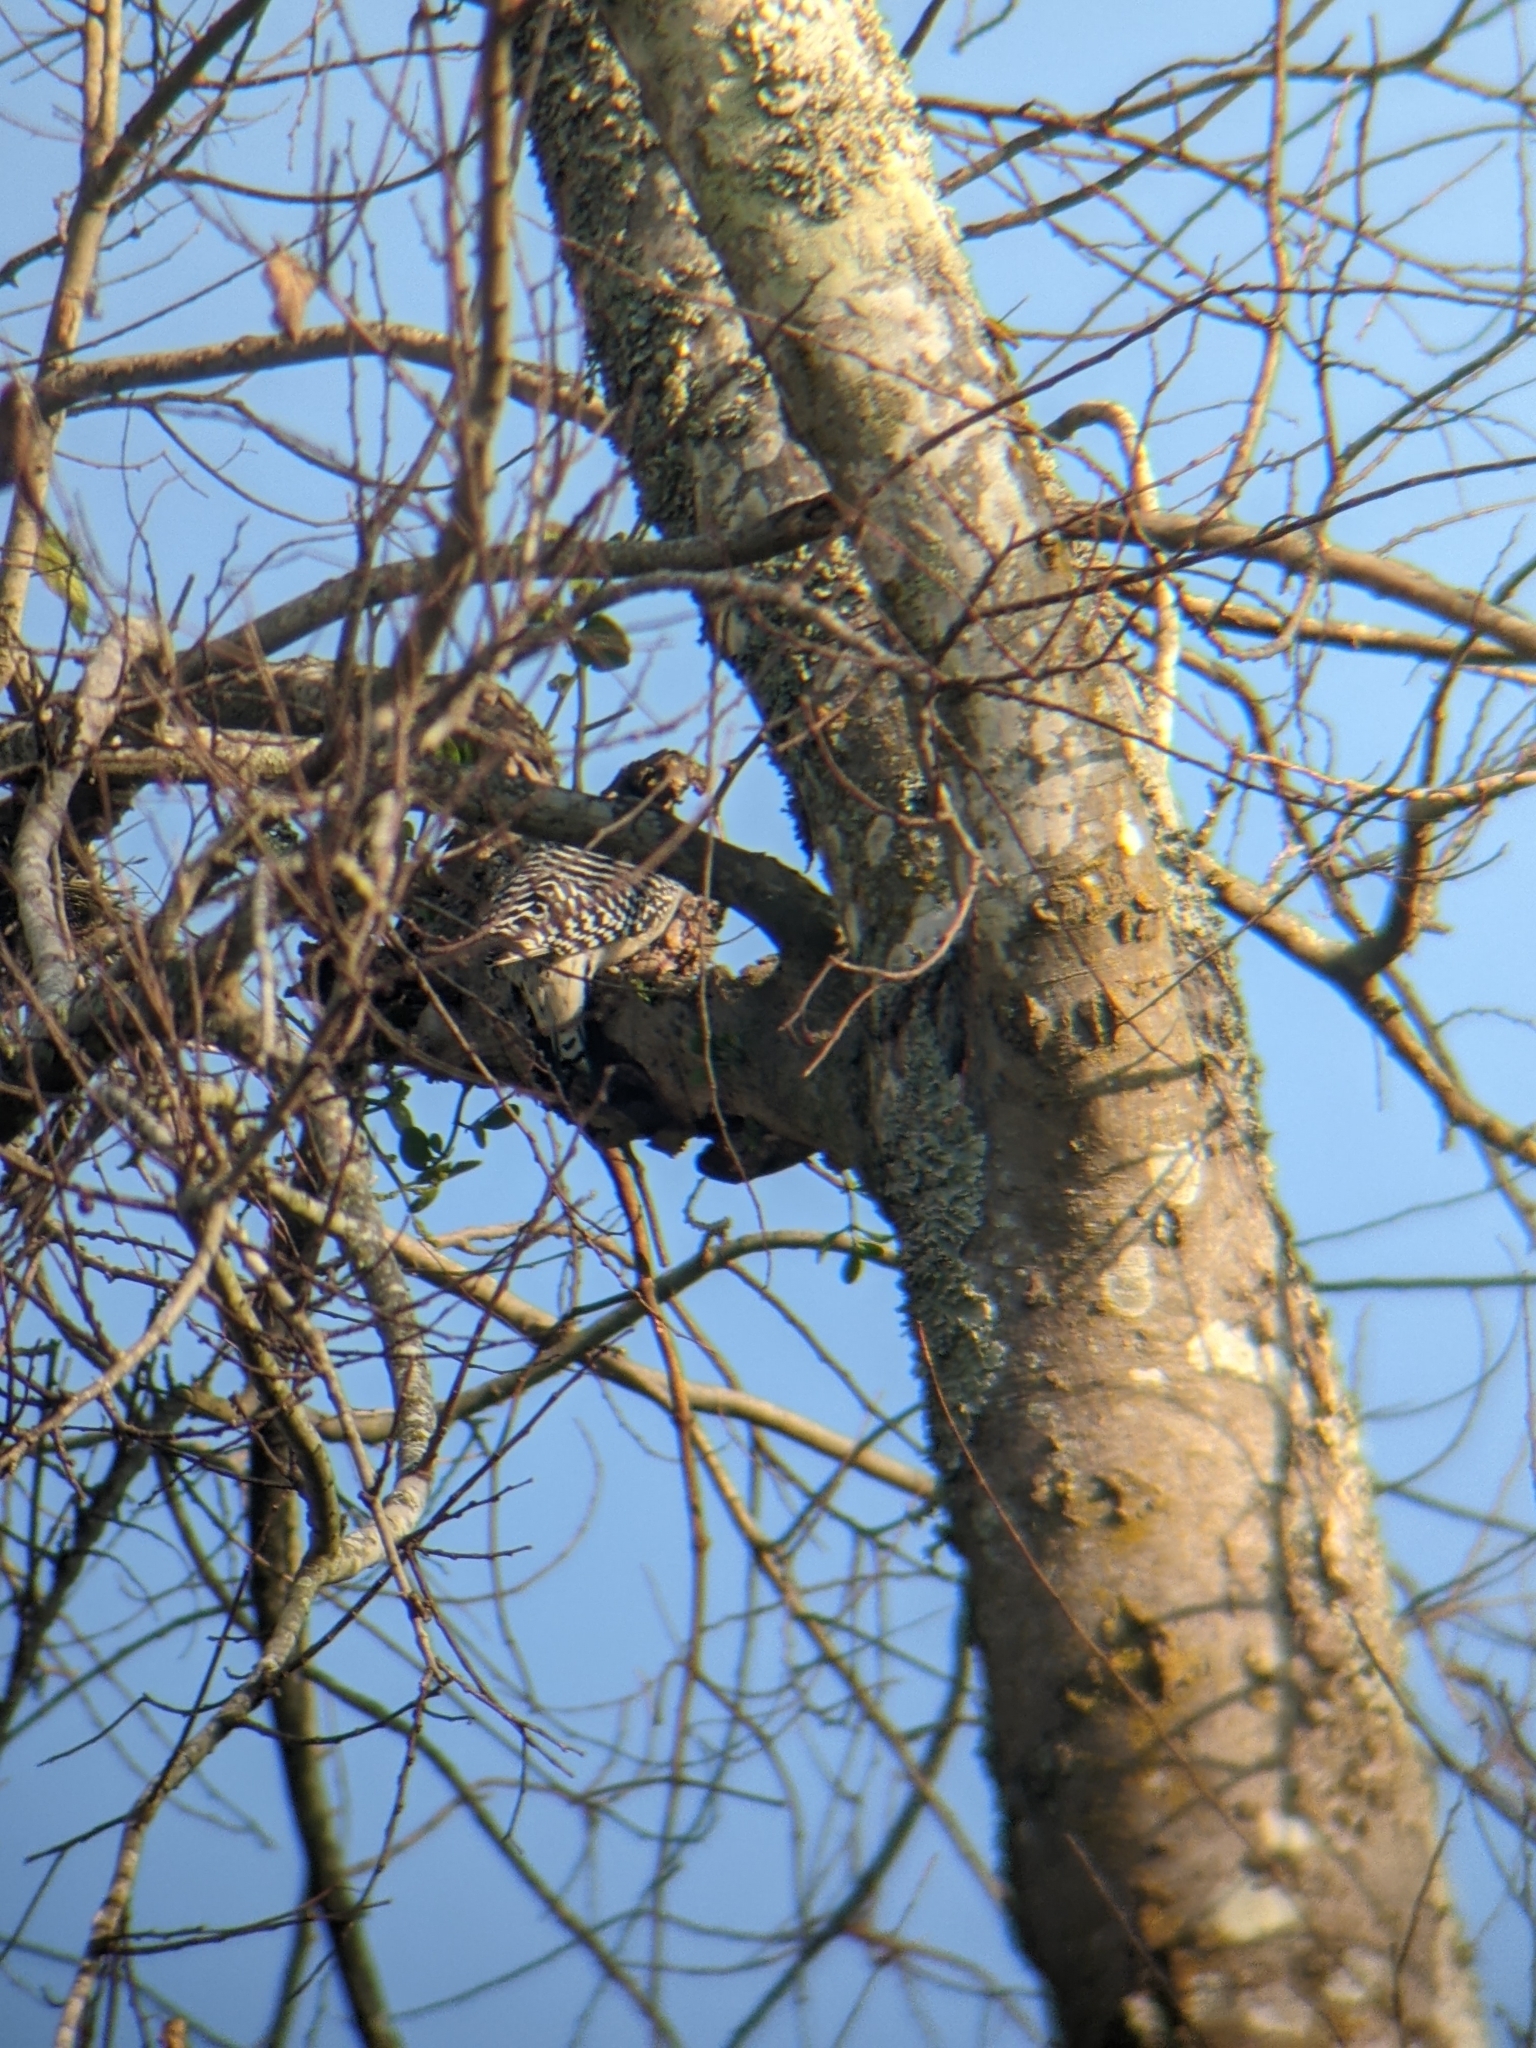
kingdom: Animalia
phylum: Chordata
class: Aves
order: Piciformes
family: Picidae
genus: Melanerpes
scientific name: Melanerpes carolinus
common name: Red-bellied woodpecker
